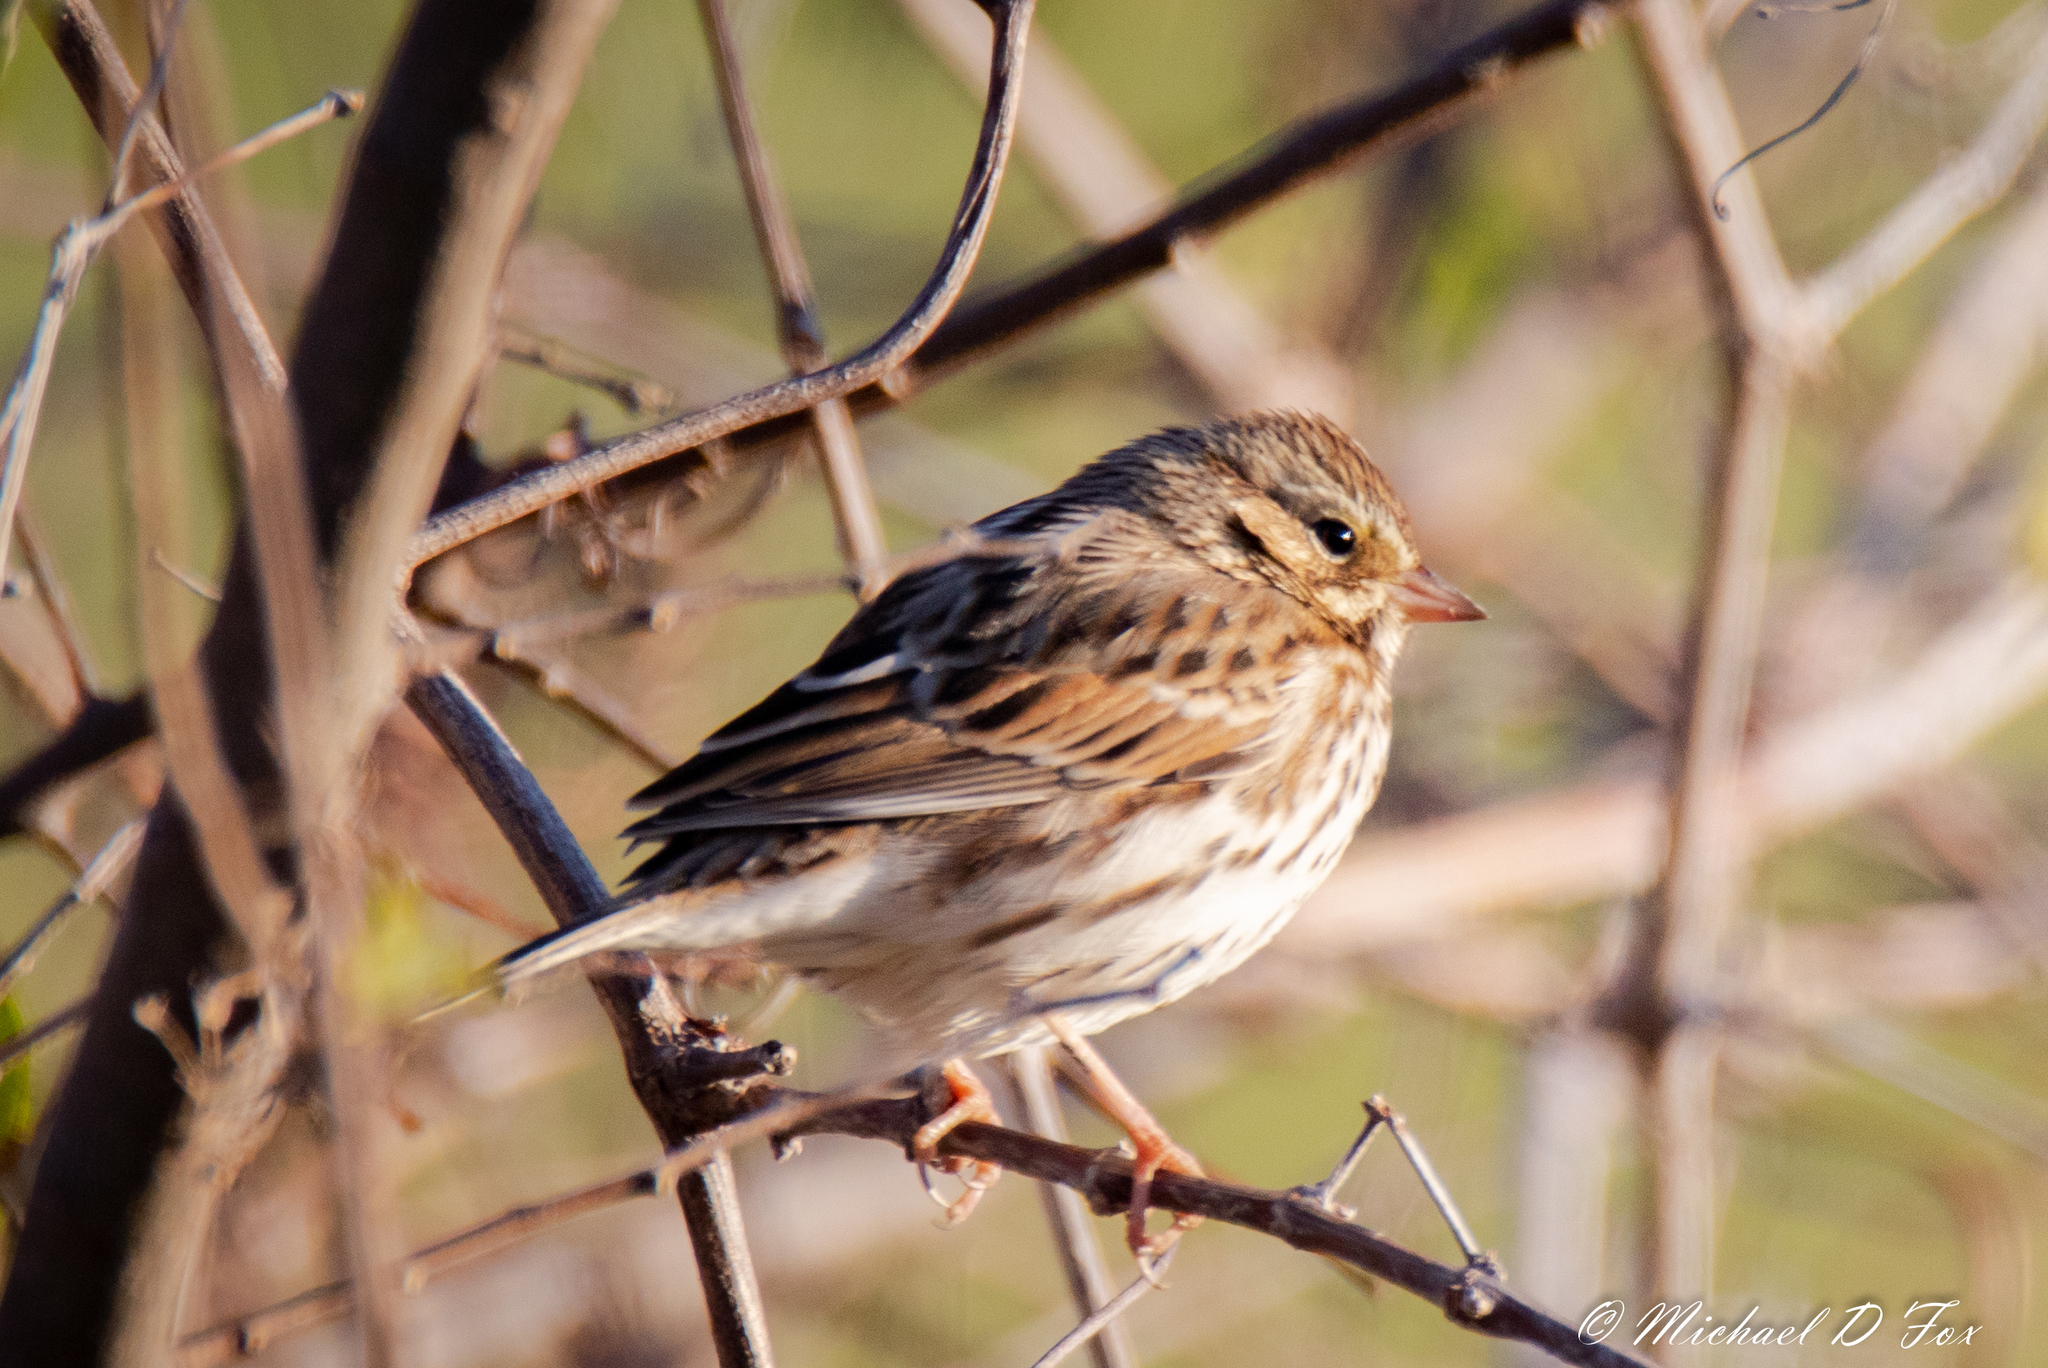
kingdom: Animalia
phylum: Chordata
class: Aves
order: Passeriformes
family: Passerellidae
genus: Passerculus
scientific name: Passerculus sandwichensis
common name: Savannah sparrow
